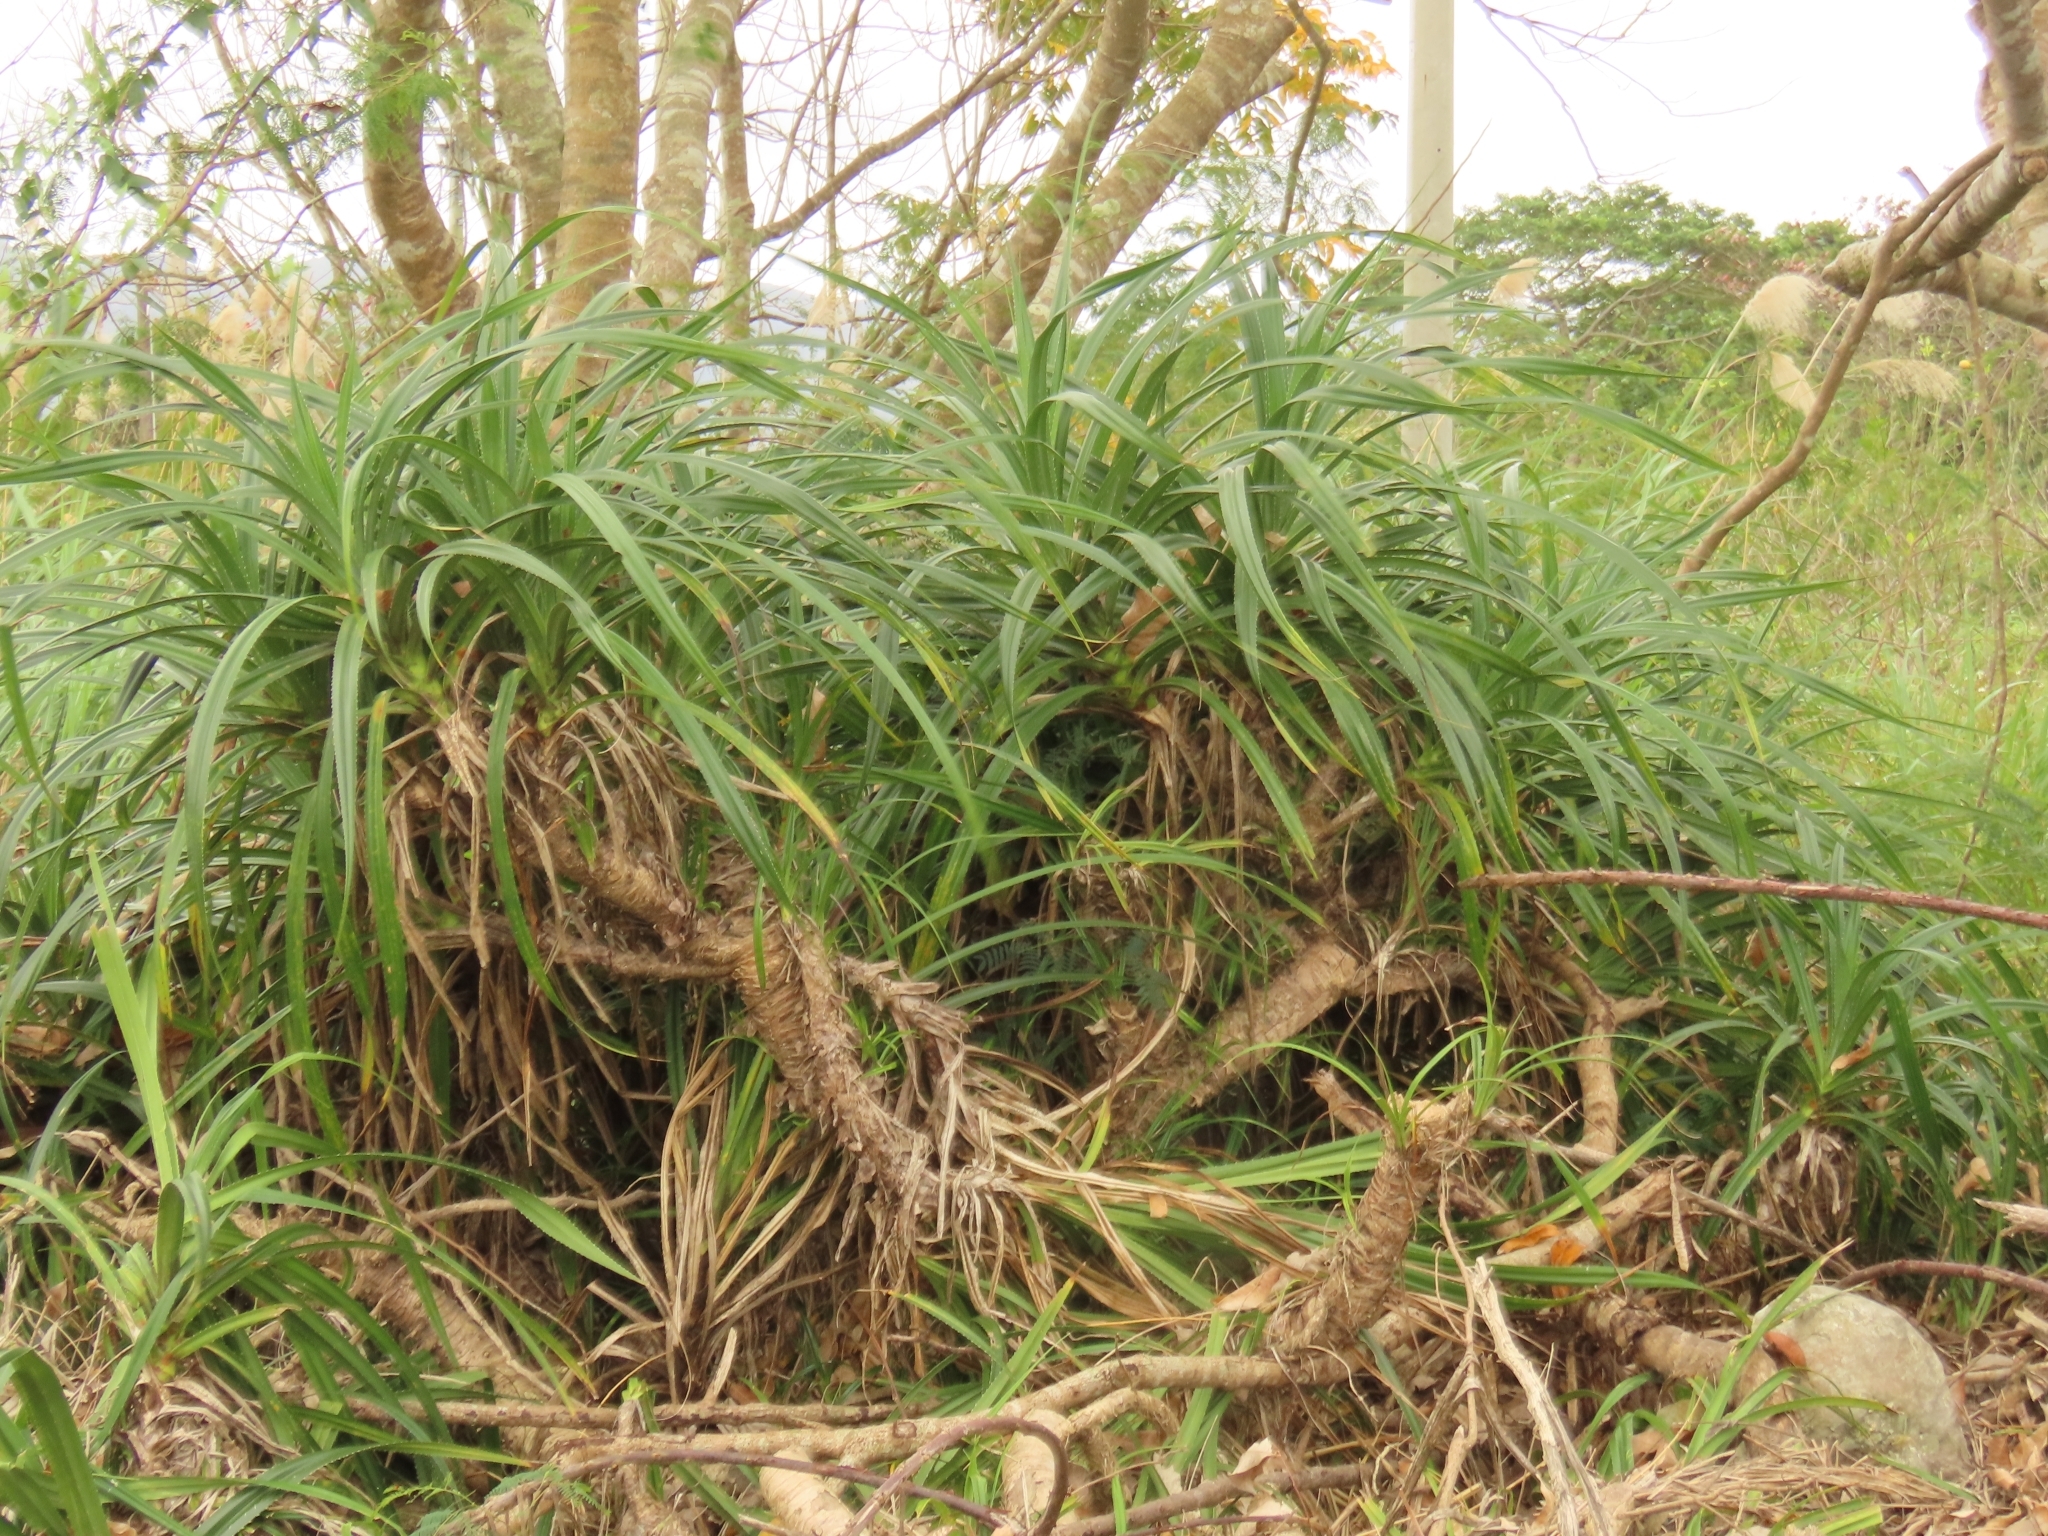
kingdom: Plantae
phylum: Tracheophyta
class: Liliopsida
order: Pandanales
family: Pandanaceae
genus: Pandanus
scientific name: Pandanus odorifer
